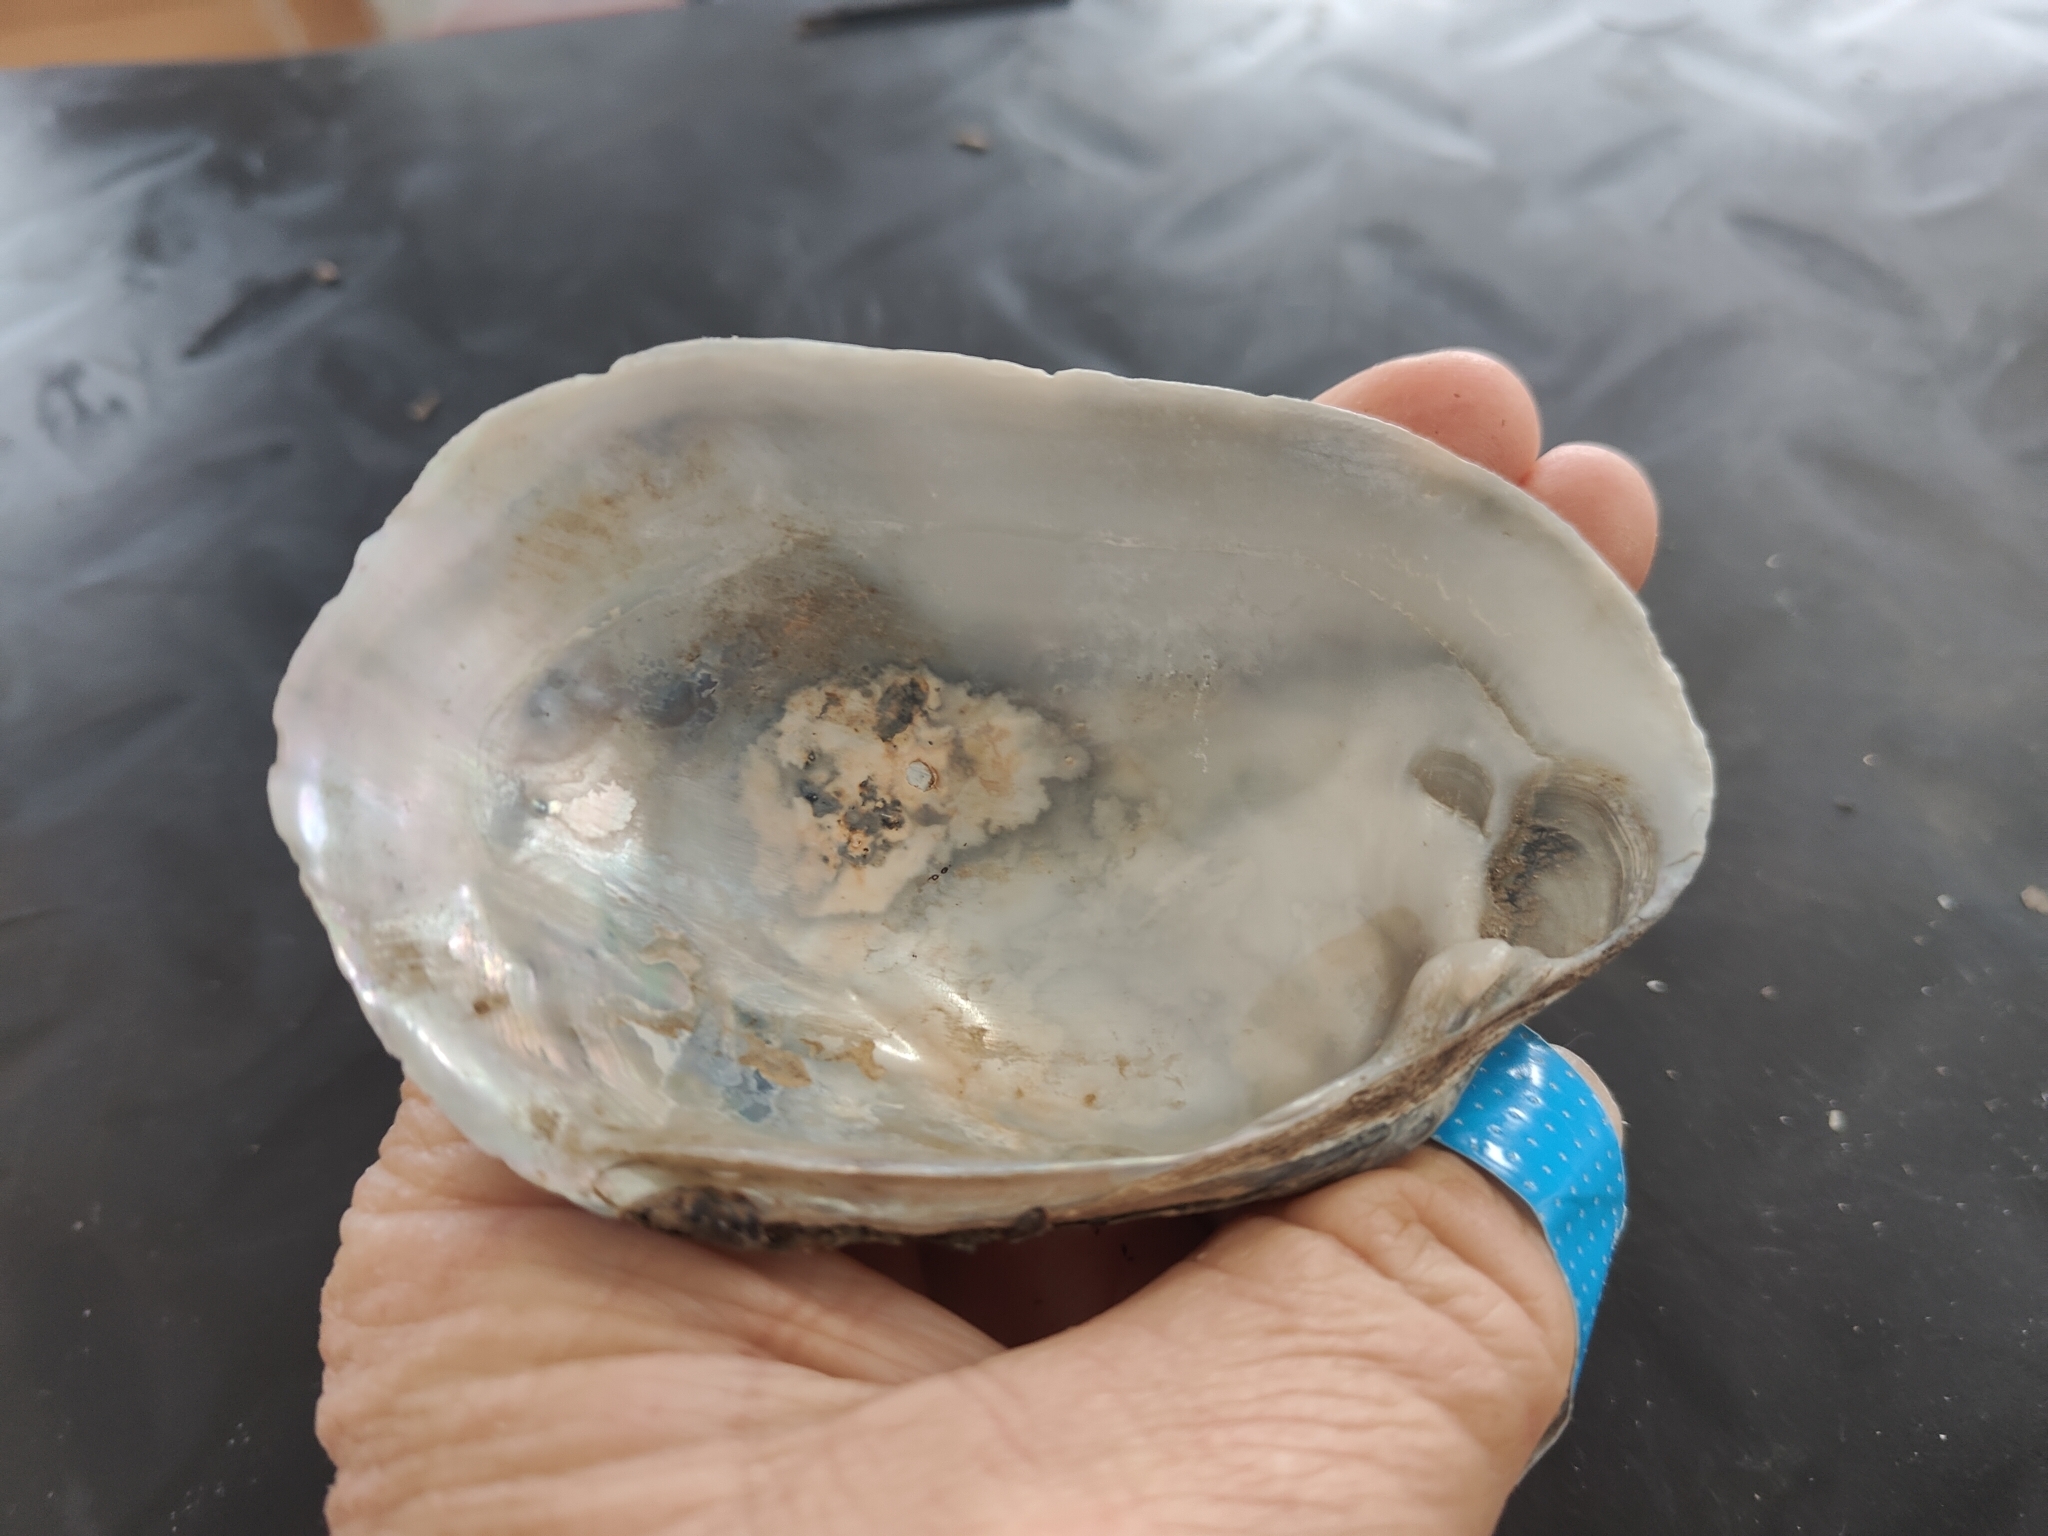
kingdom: Animalia
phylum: Mollusca
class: Bivalvia
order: Unionida
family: Unionidae
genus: Lampsilis
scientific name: Lampsilis siliquoidea
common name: Fatmucket
